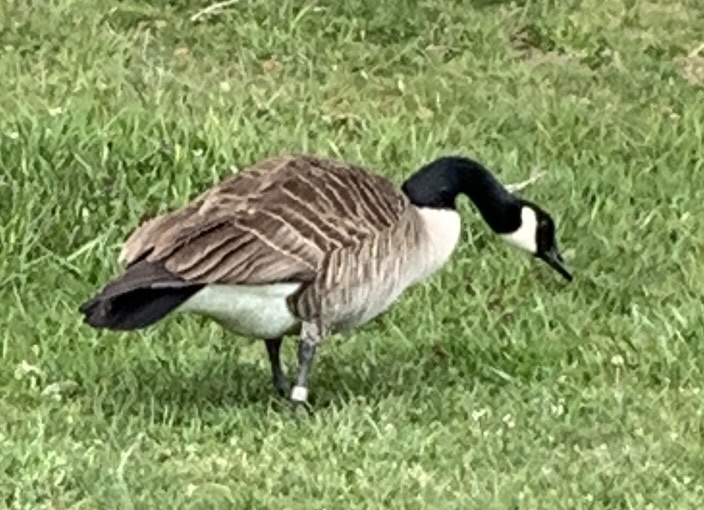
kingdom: Animalia
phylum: Chordata
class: Aves
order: Anseriformes
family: Anatidae
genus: Branta
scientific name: Branta canadensis
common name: Canada goose
